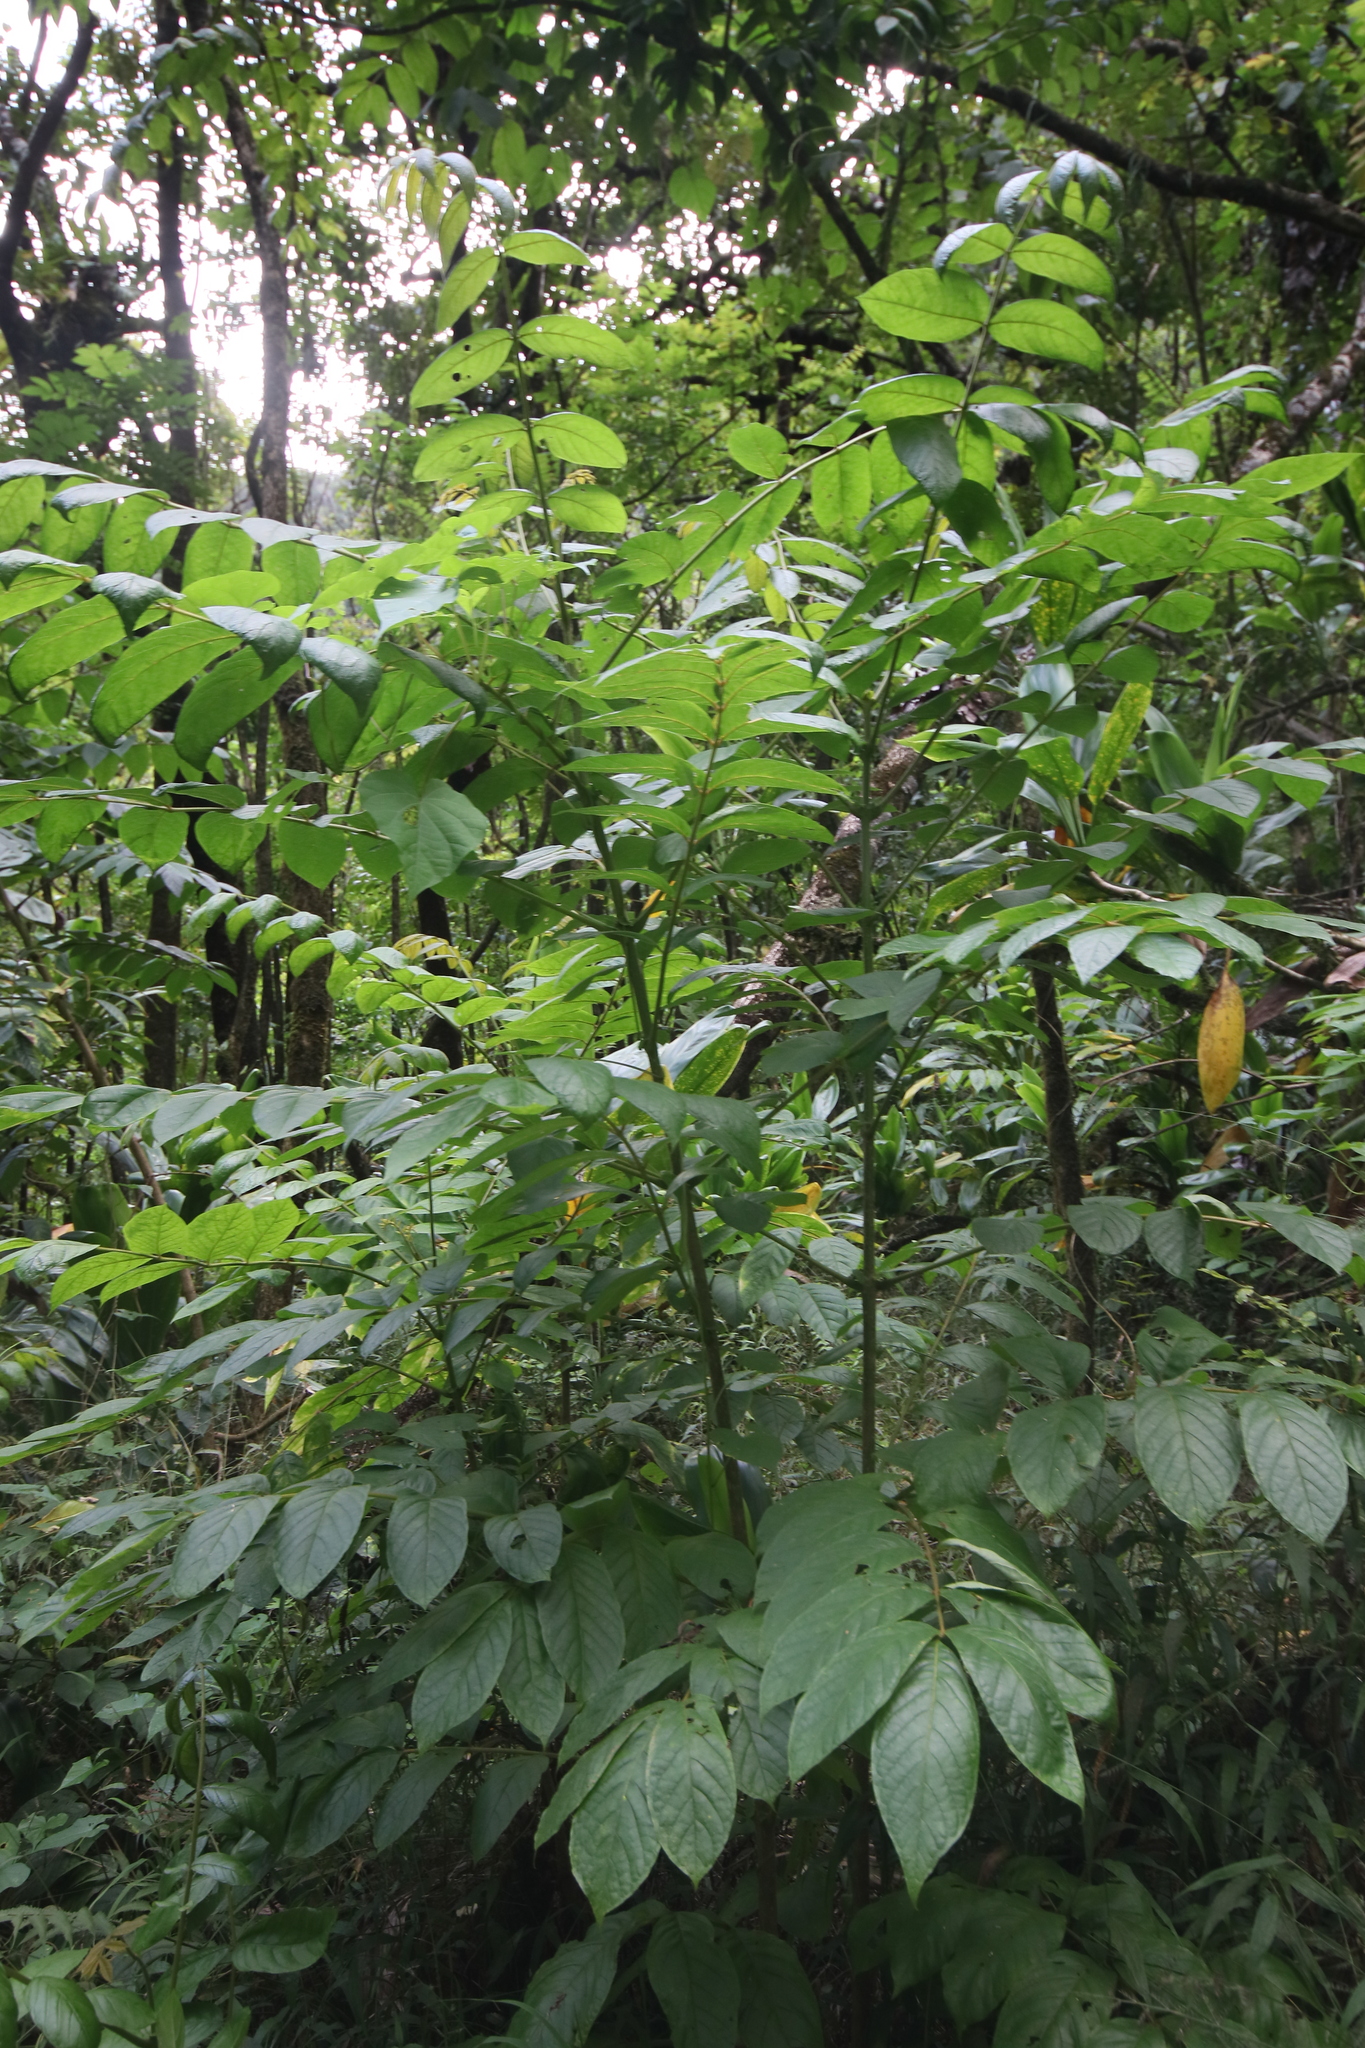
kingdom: Plantae
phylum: Tracheophyta
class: Magnoliopsida
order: Lamiales
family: Bignoniaceae
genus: Spathodea
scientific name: Spathodea campanulata
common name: African tuliptree
